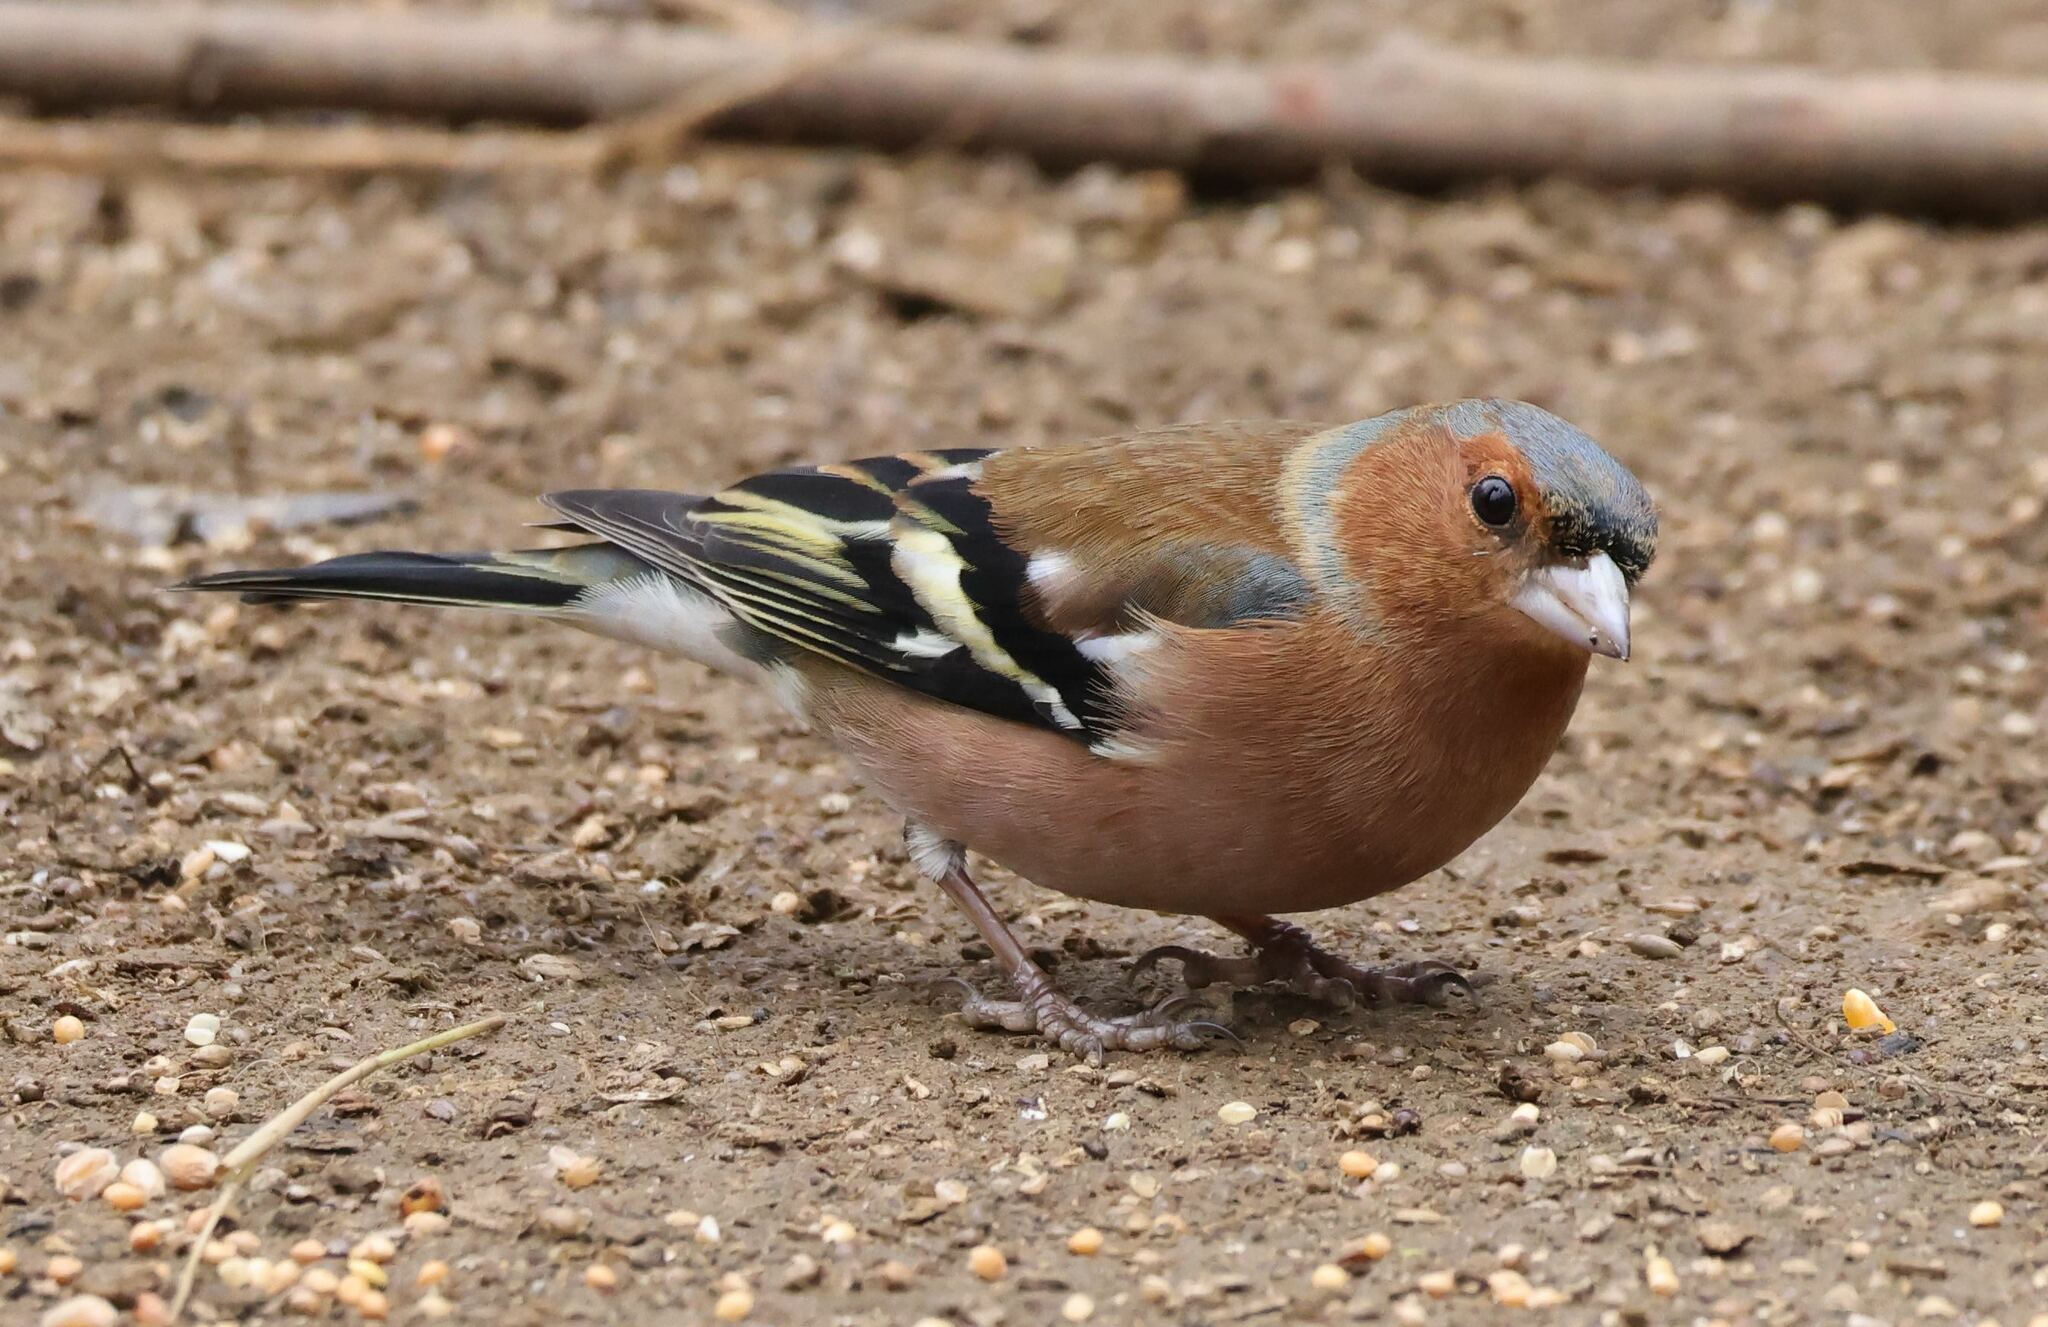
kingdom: Animalia
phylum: Chordata
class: Aves
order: Passeriformes
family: Fringillidae
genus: Fringilla
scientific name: Fringilla coelebs
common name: Common chaffinch
